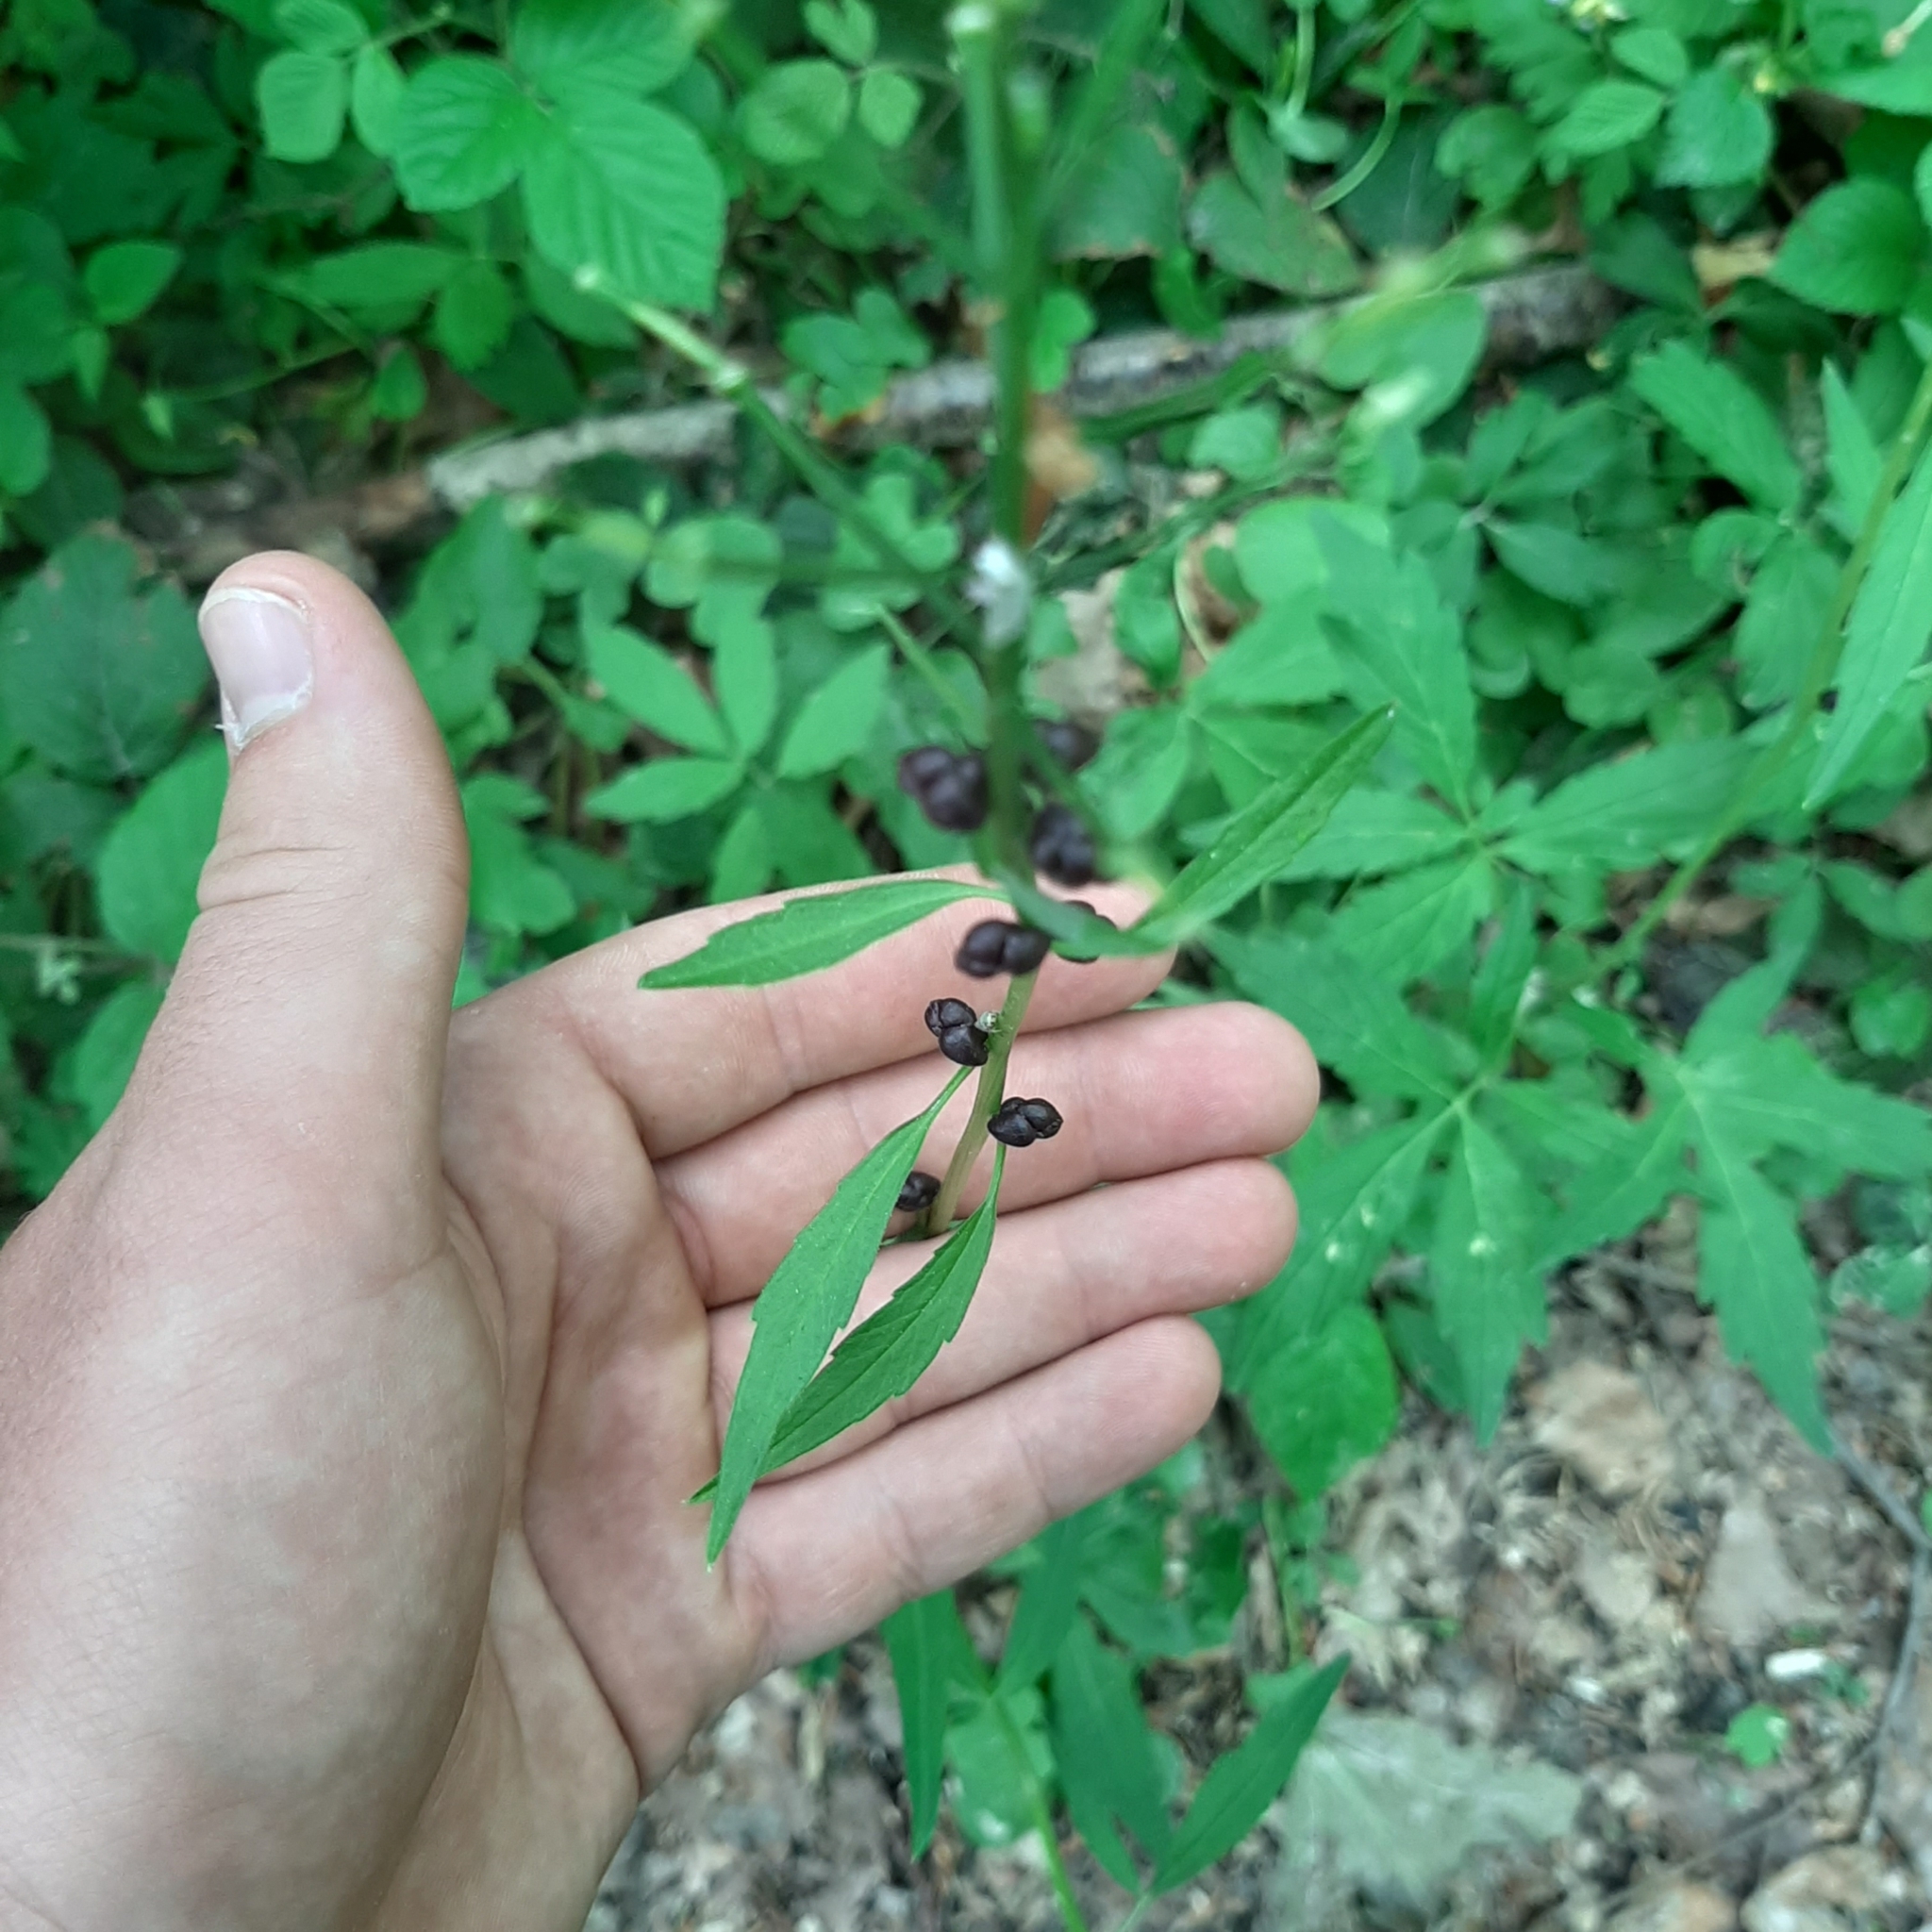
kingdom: Plantae
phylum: Tracheophyta
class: Magnoliopsida
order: Brassicales
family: Brassicaceae
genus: Cardamine
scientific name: Cardamine bulbifera
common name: Coralroot bittercress
